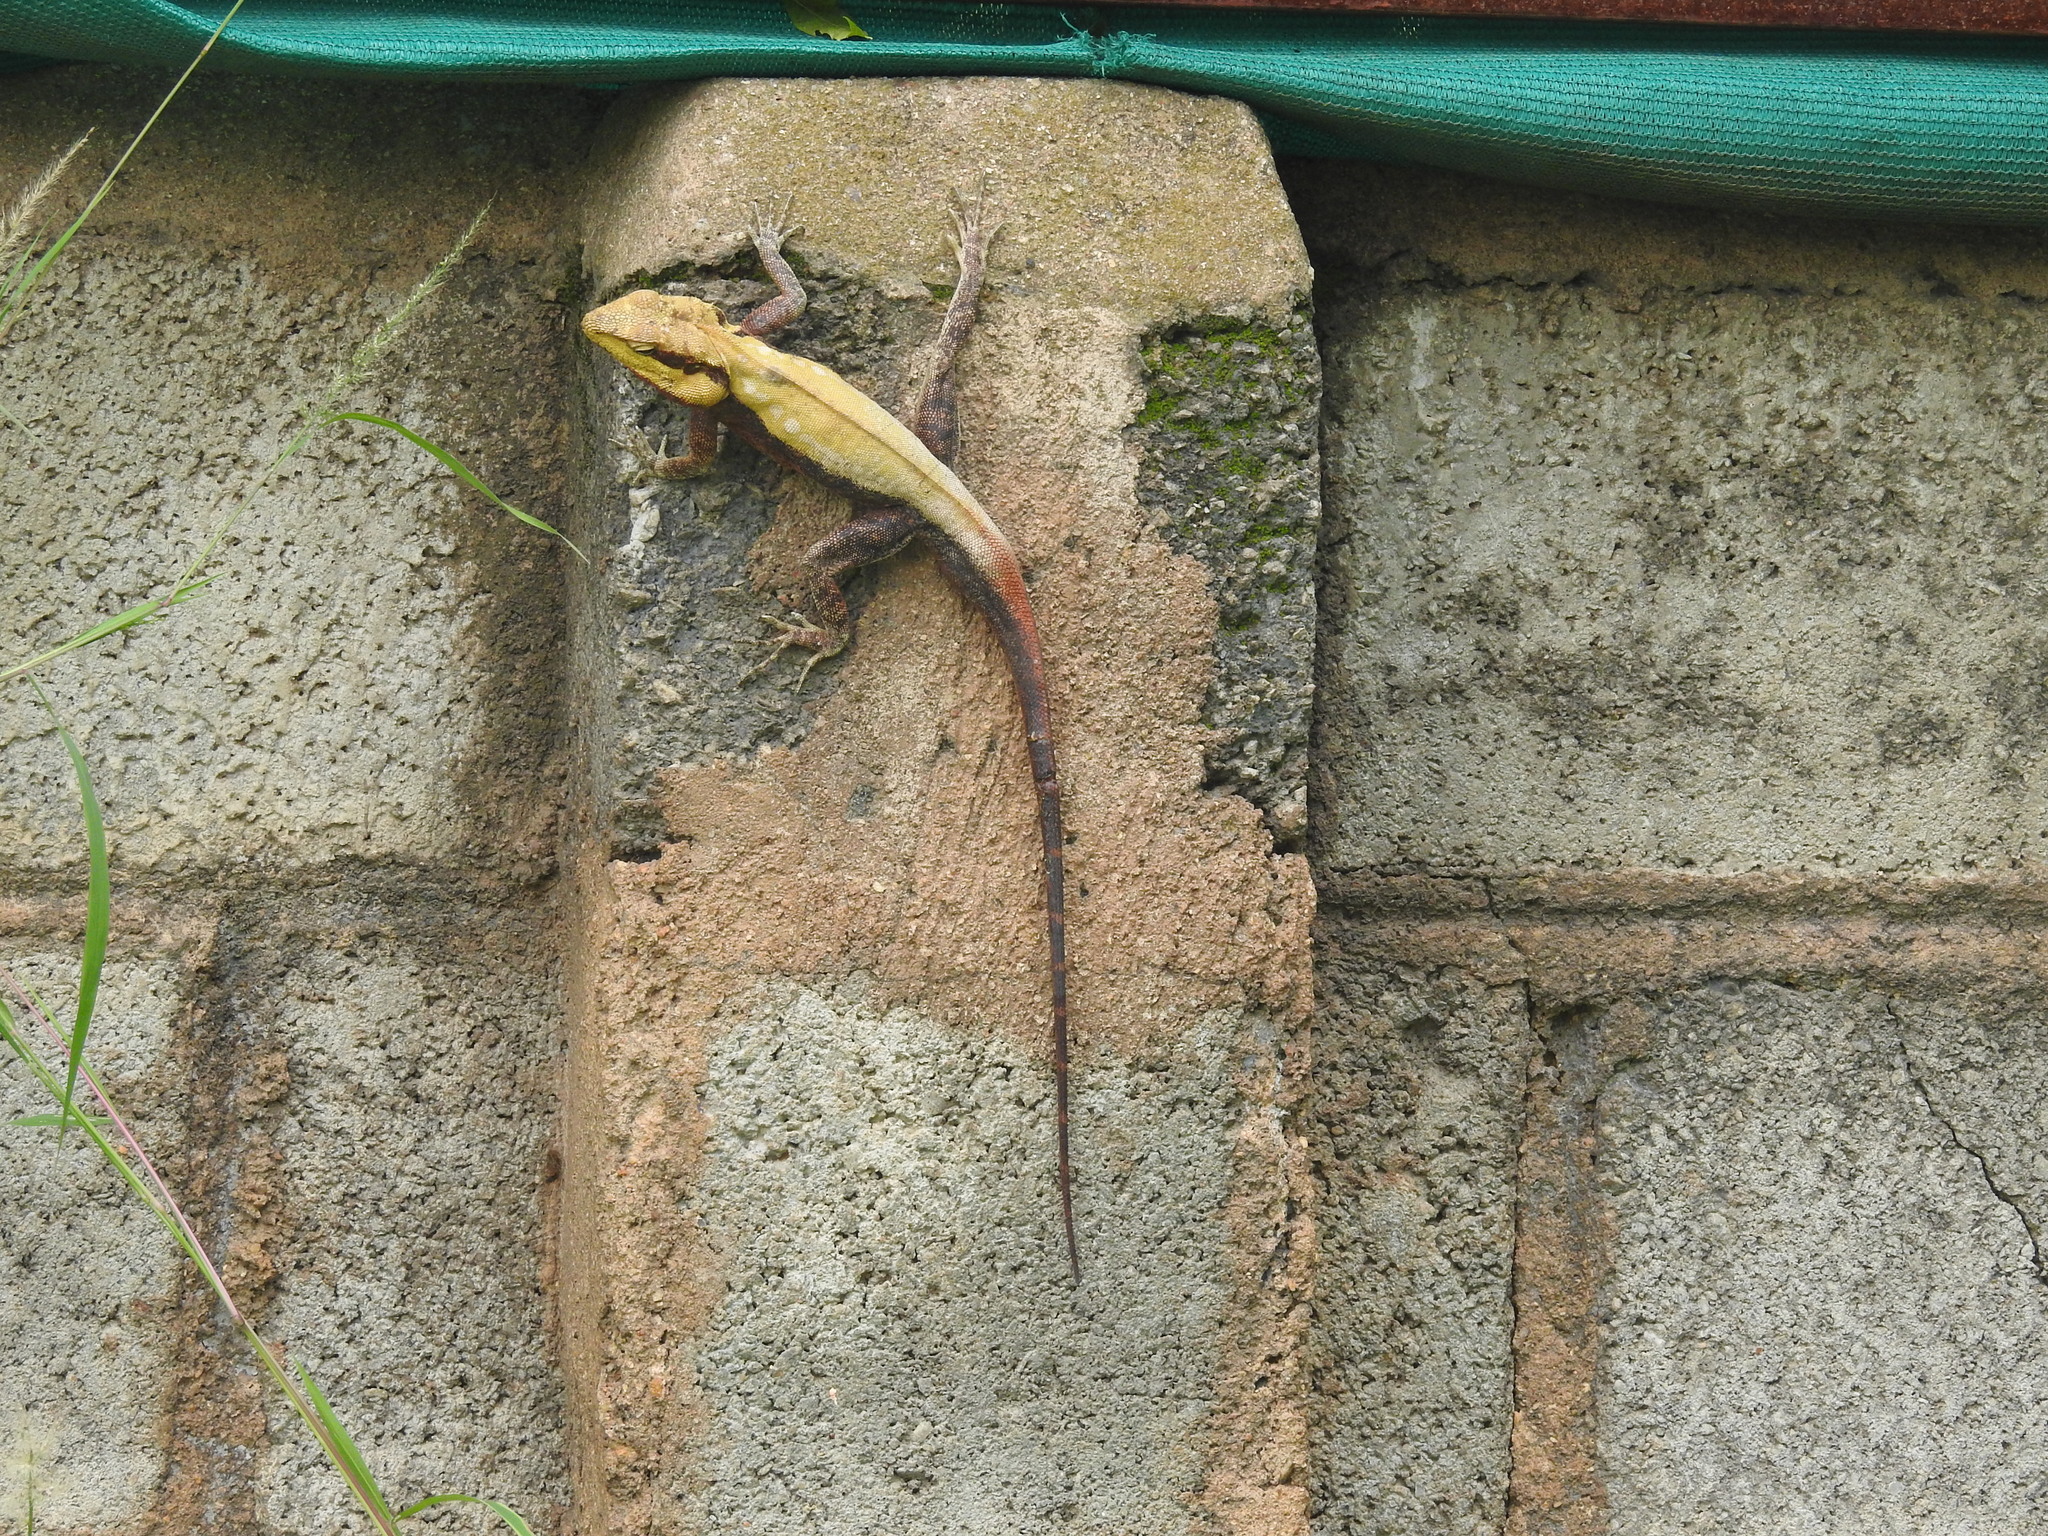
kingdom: Animalia
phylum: Chordata
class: Squamata
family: Agamidae
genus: Psammophilus
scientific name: Psammophilus dorsalis
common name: South indian rock agama
